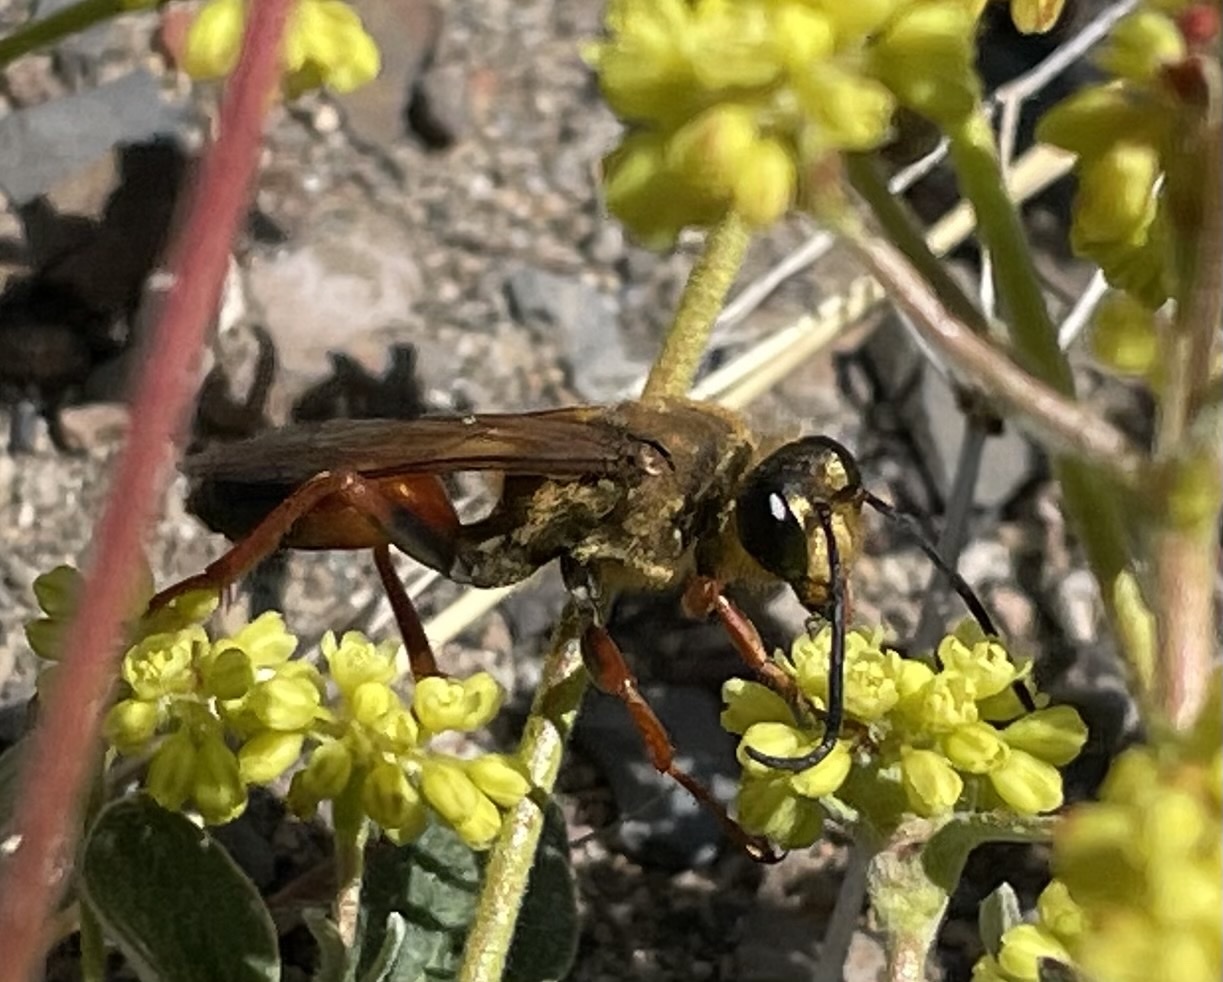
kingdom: Animalia
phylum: Arthropoda
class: Insecta
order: Hymenoptera
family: Sphecidae
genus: Sphex
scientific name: Sphex ichneumoneus
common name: Great golden digger wasp
